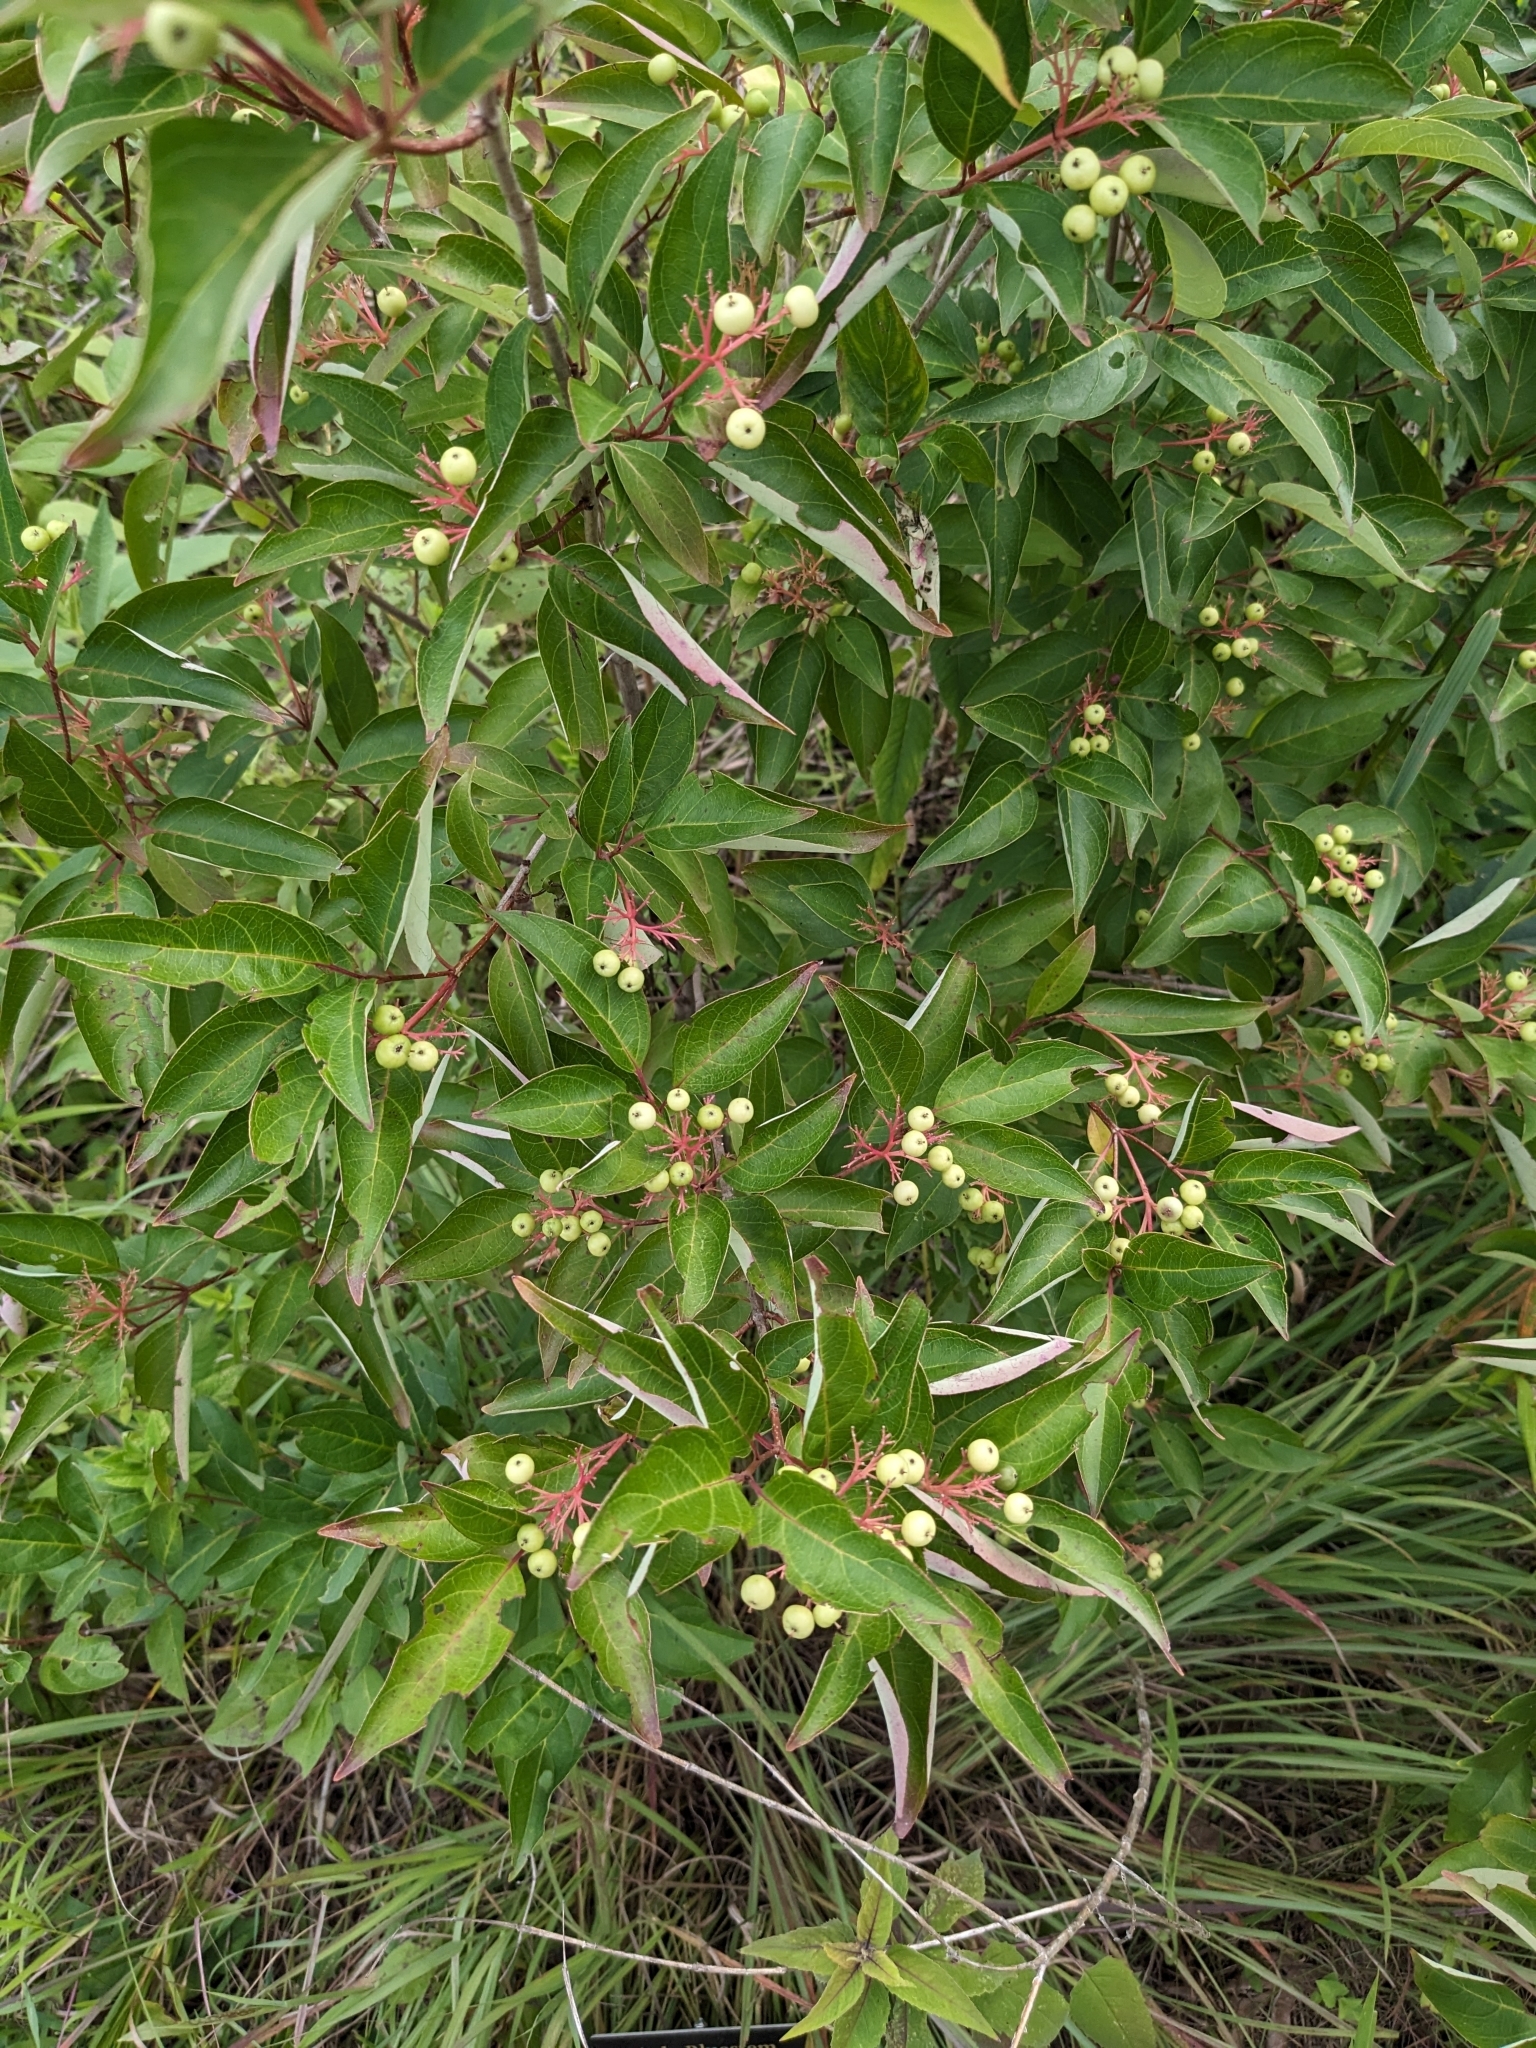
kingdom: Plantae
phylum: Tracheophyta
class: Magnoliopsida
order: Cornales
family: Cornaceae
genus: Cornus
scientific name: Cornus racemosa
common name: Panicled dogwood
